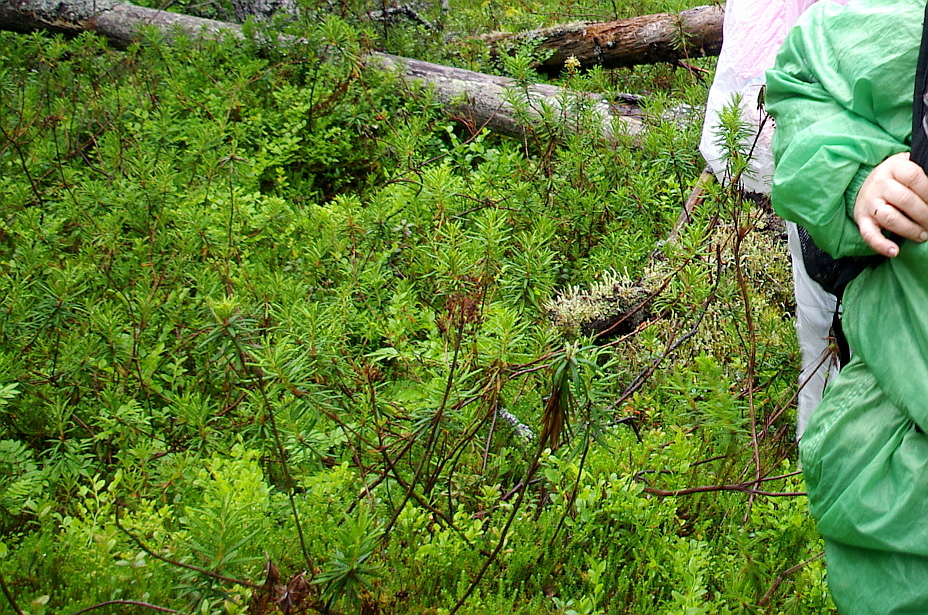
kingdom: Plantae
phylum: Tracheophyta
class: Magnoliopsida
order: Ericales
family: Ericaceae
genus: Rhododendron
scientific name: Rhododendron tomentosum
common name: Marsh labrador tea
